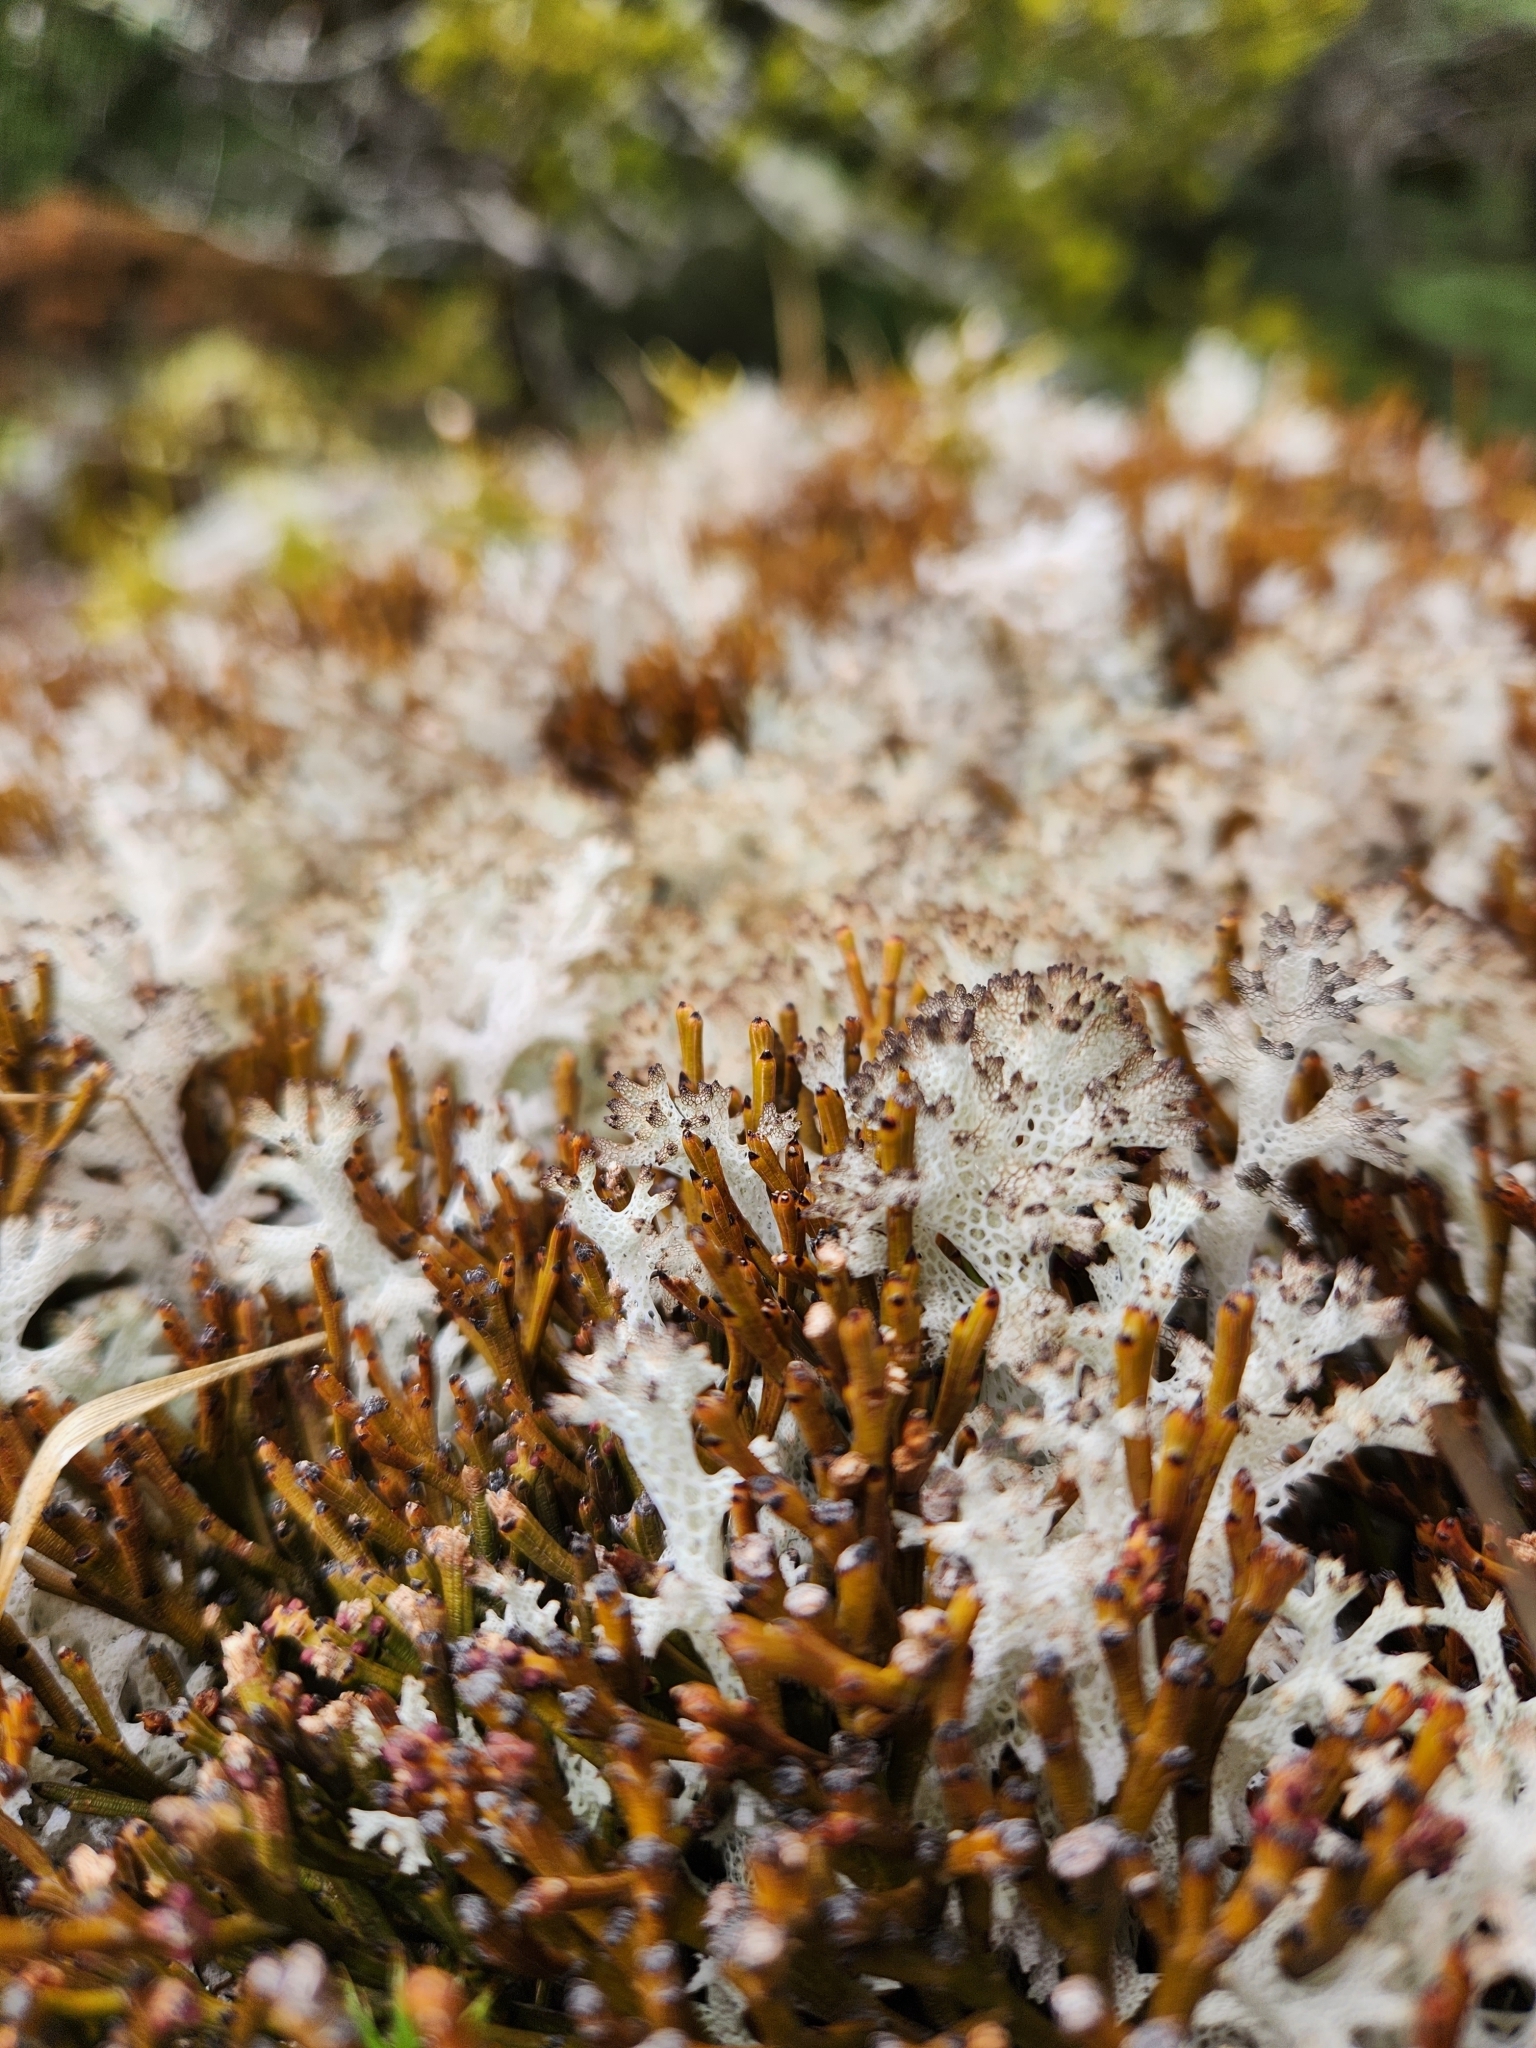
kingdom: Plantae
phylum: Tracheophyta
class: Magnoliopsida
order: Santalales
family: Santalaceae
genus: Exocarpos
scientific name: Exocarpos bidwillii
